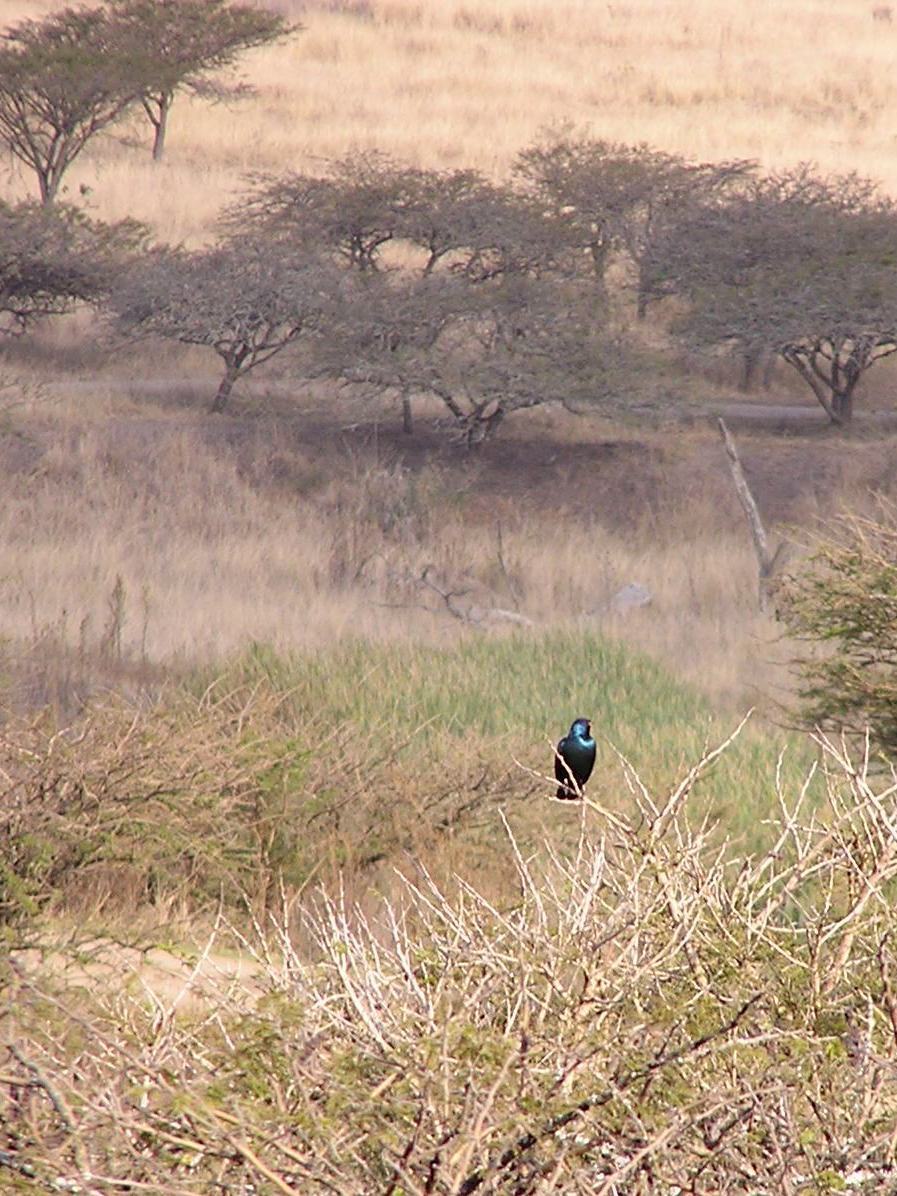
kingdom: Animalia
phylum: Chordata
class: Aves
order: Passeriformes
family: Sturnidae
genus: Lamprotornis
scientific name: Lamprotornis nitens
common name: Cape starling
